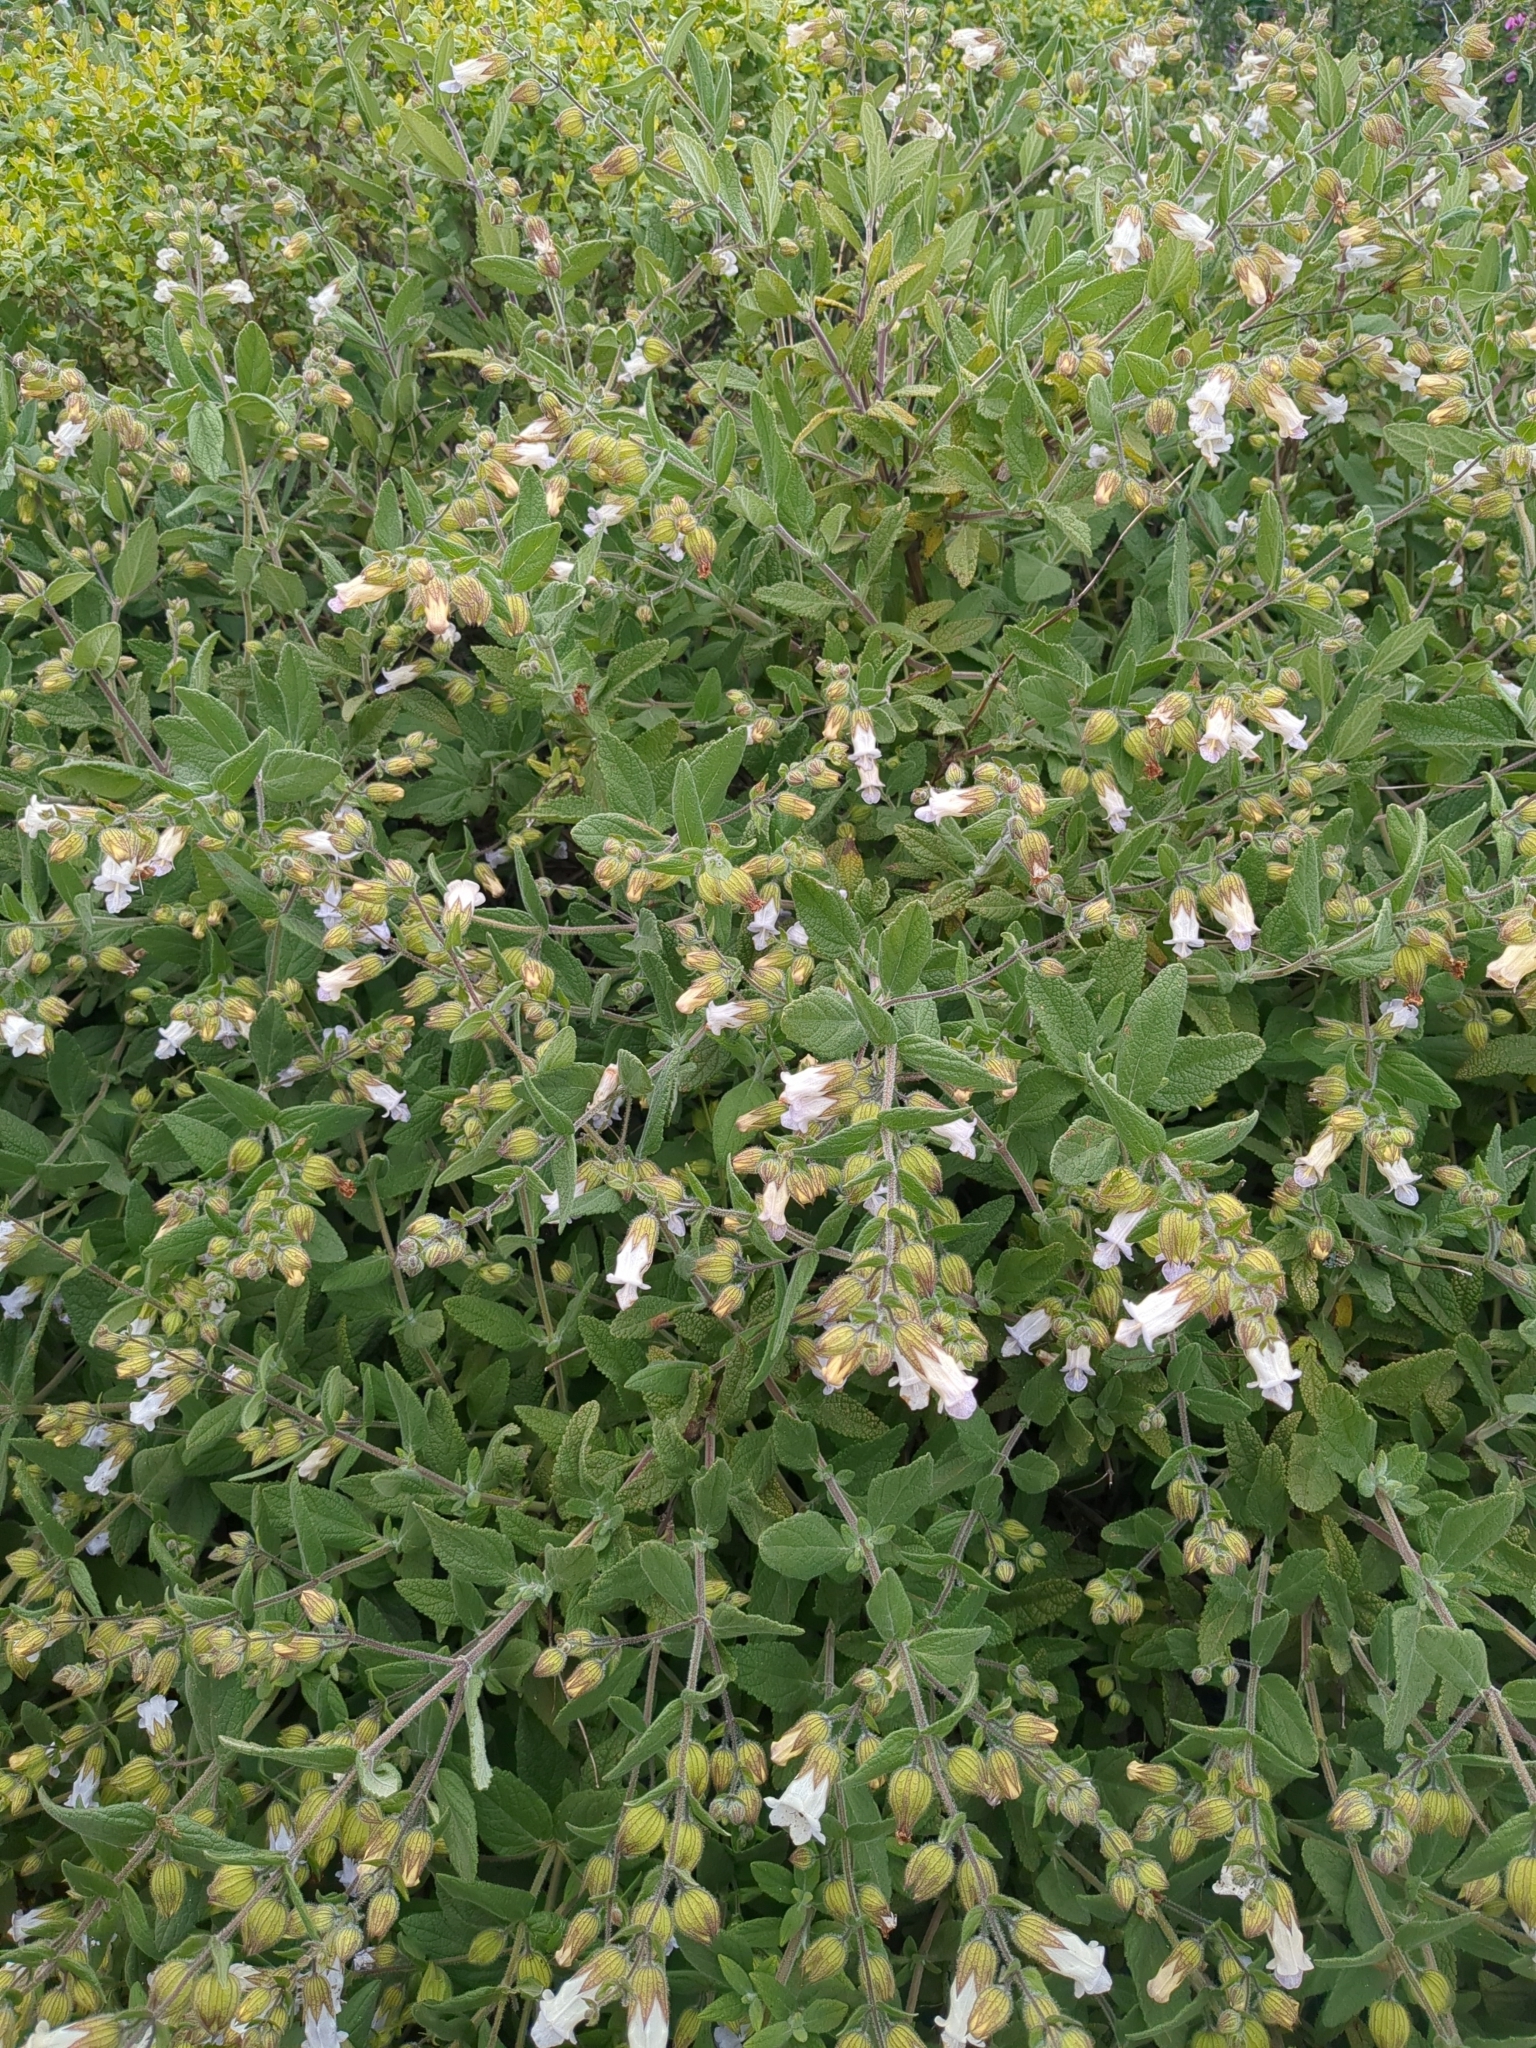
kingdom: Plantae
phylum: Tracheophyta
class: Magnoliopsida
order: Lamiales
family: Lamiaceae
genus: Lepechinia
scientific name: Lepechinia calycina
